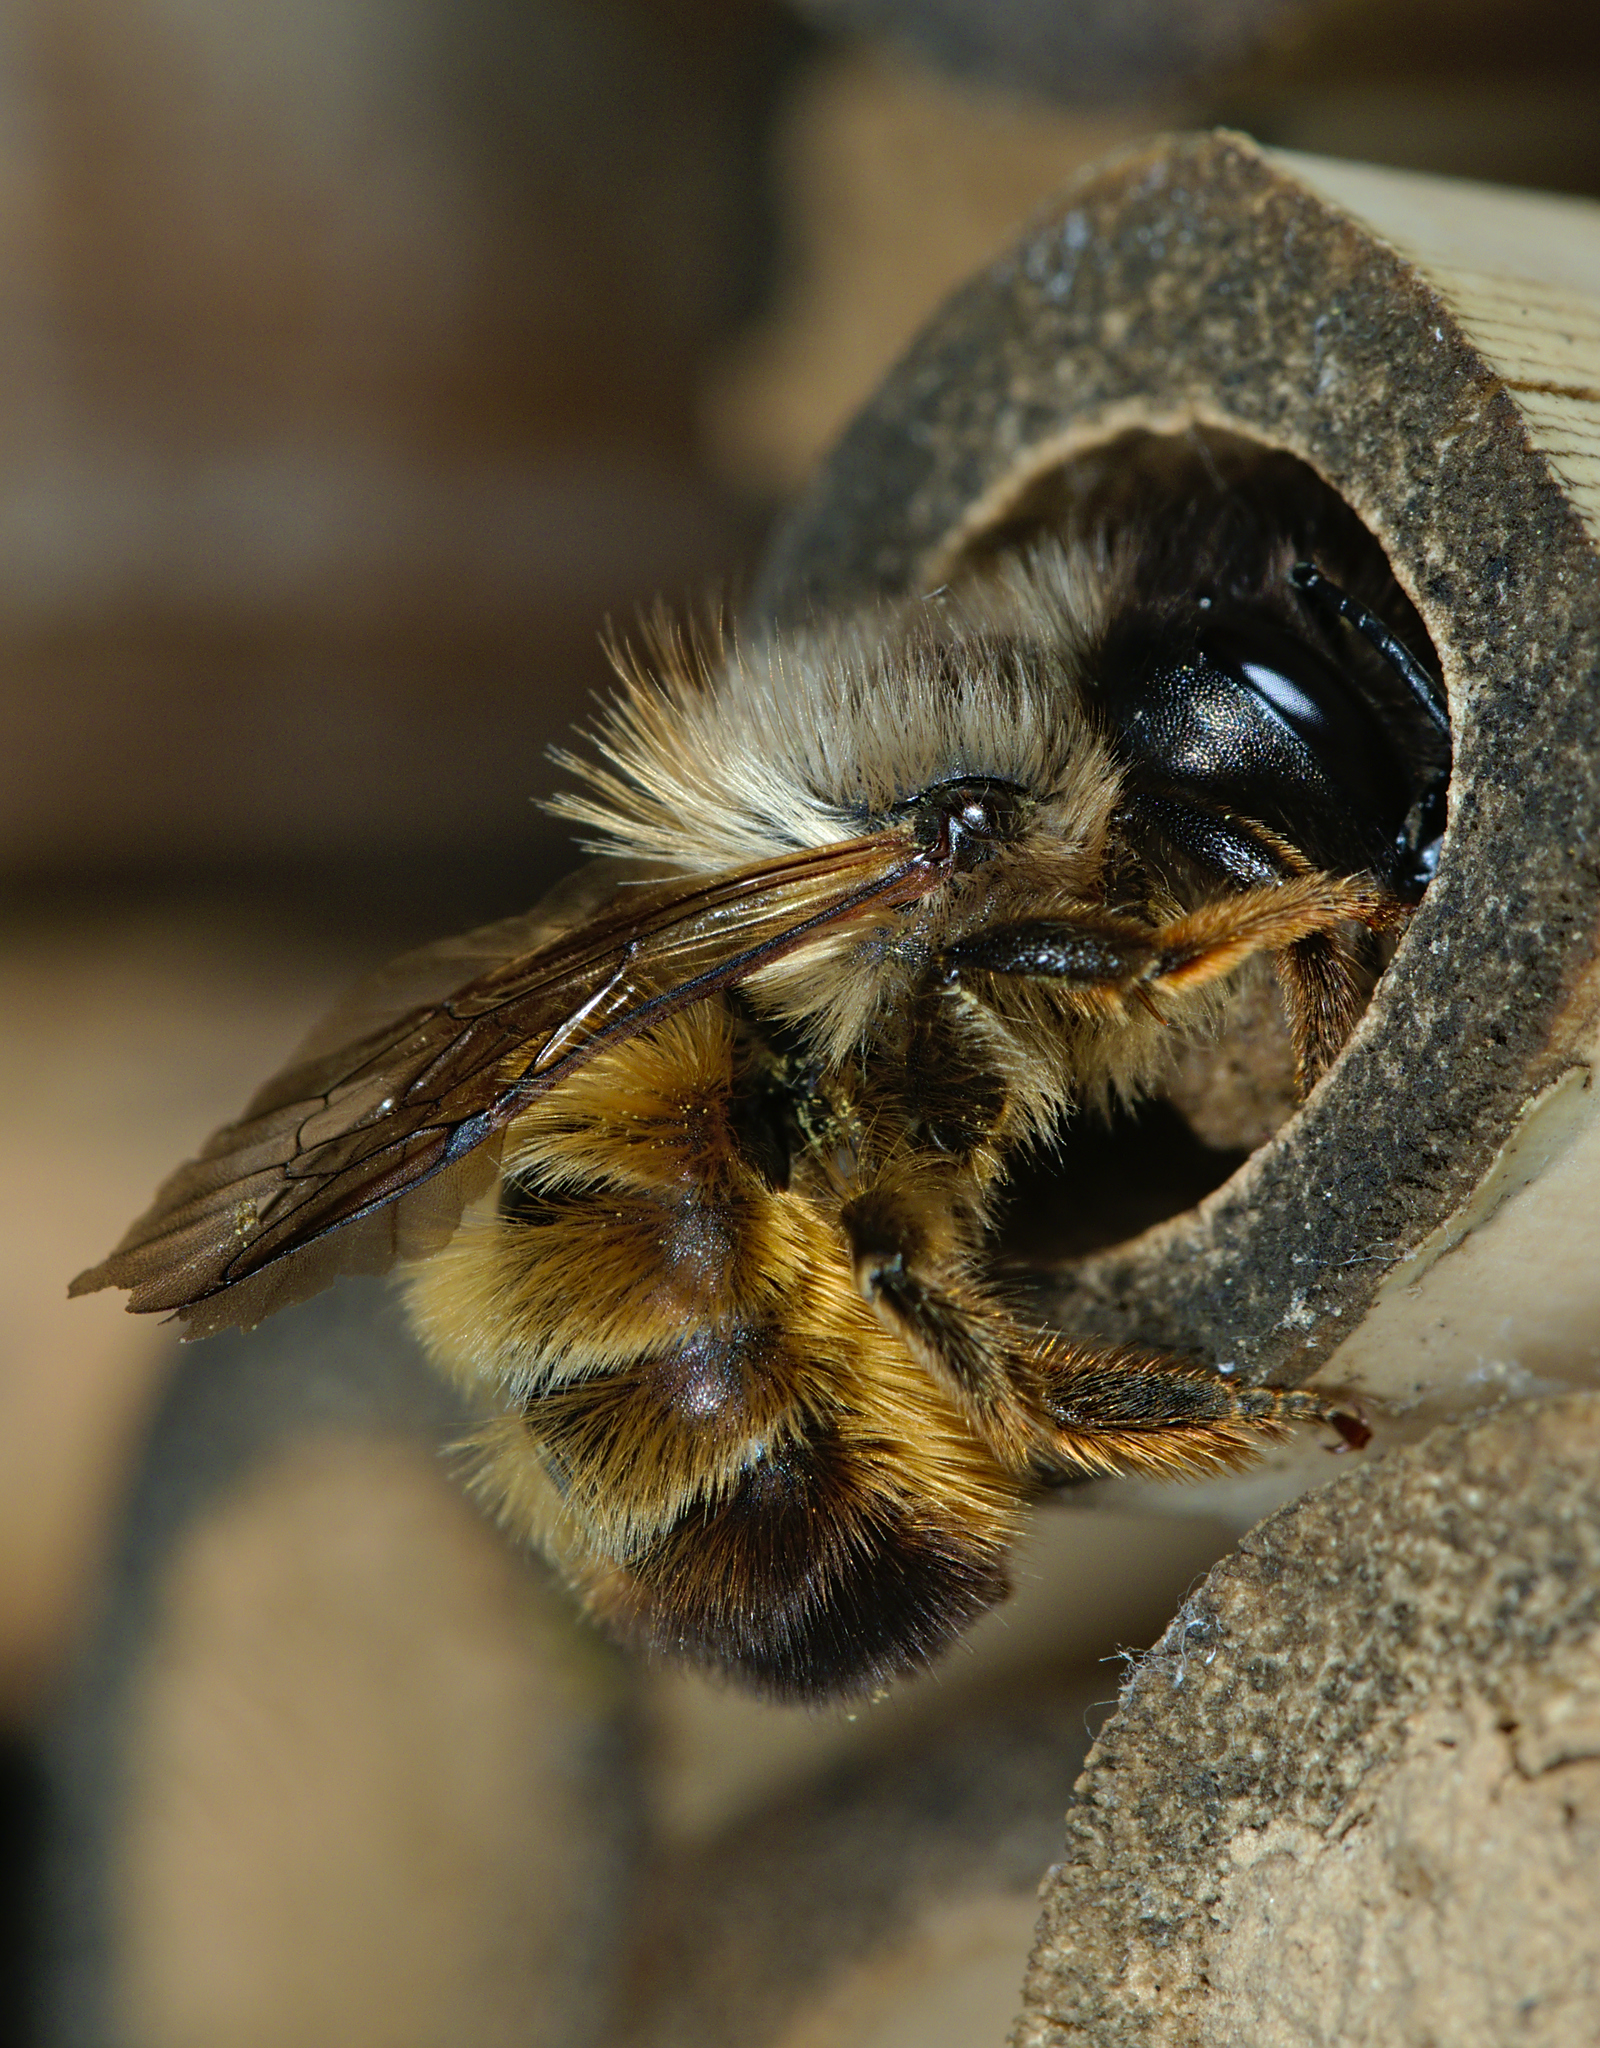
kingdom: Animalia
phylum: Arthropoda
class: Insecta
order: Hymenoptera
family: Megachilidae
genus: Osmia
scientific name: Osmia bicornis
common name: Red mason bee
